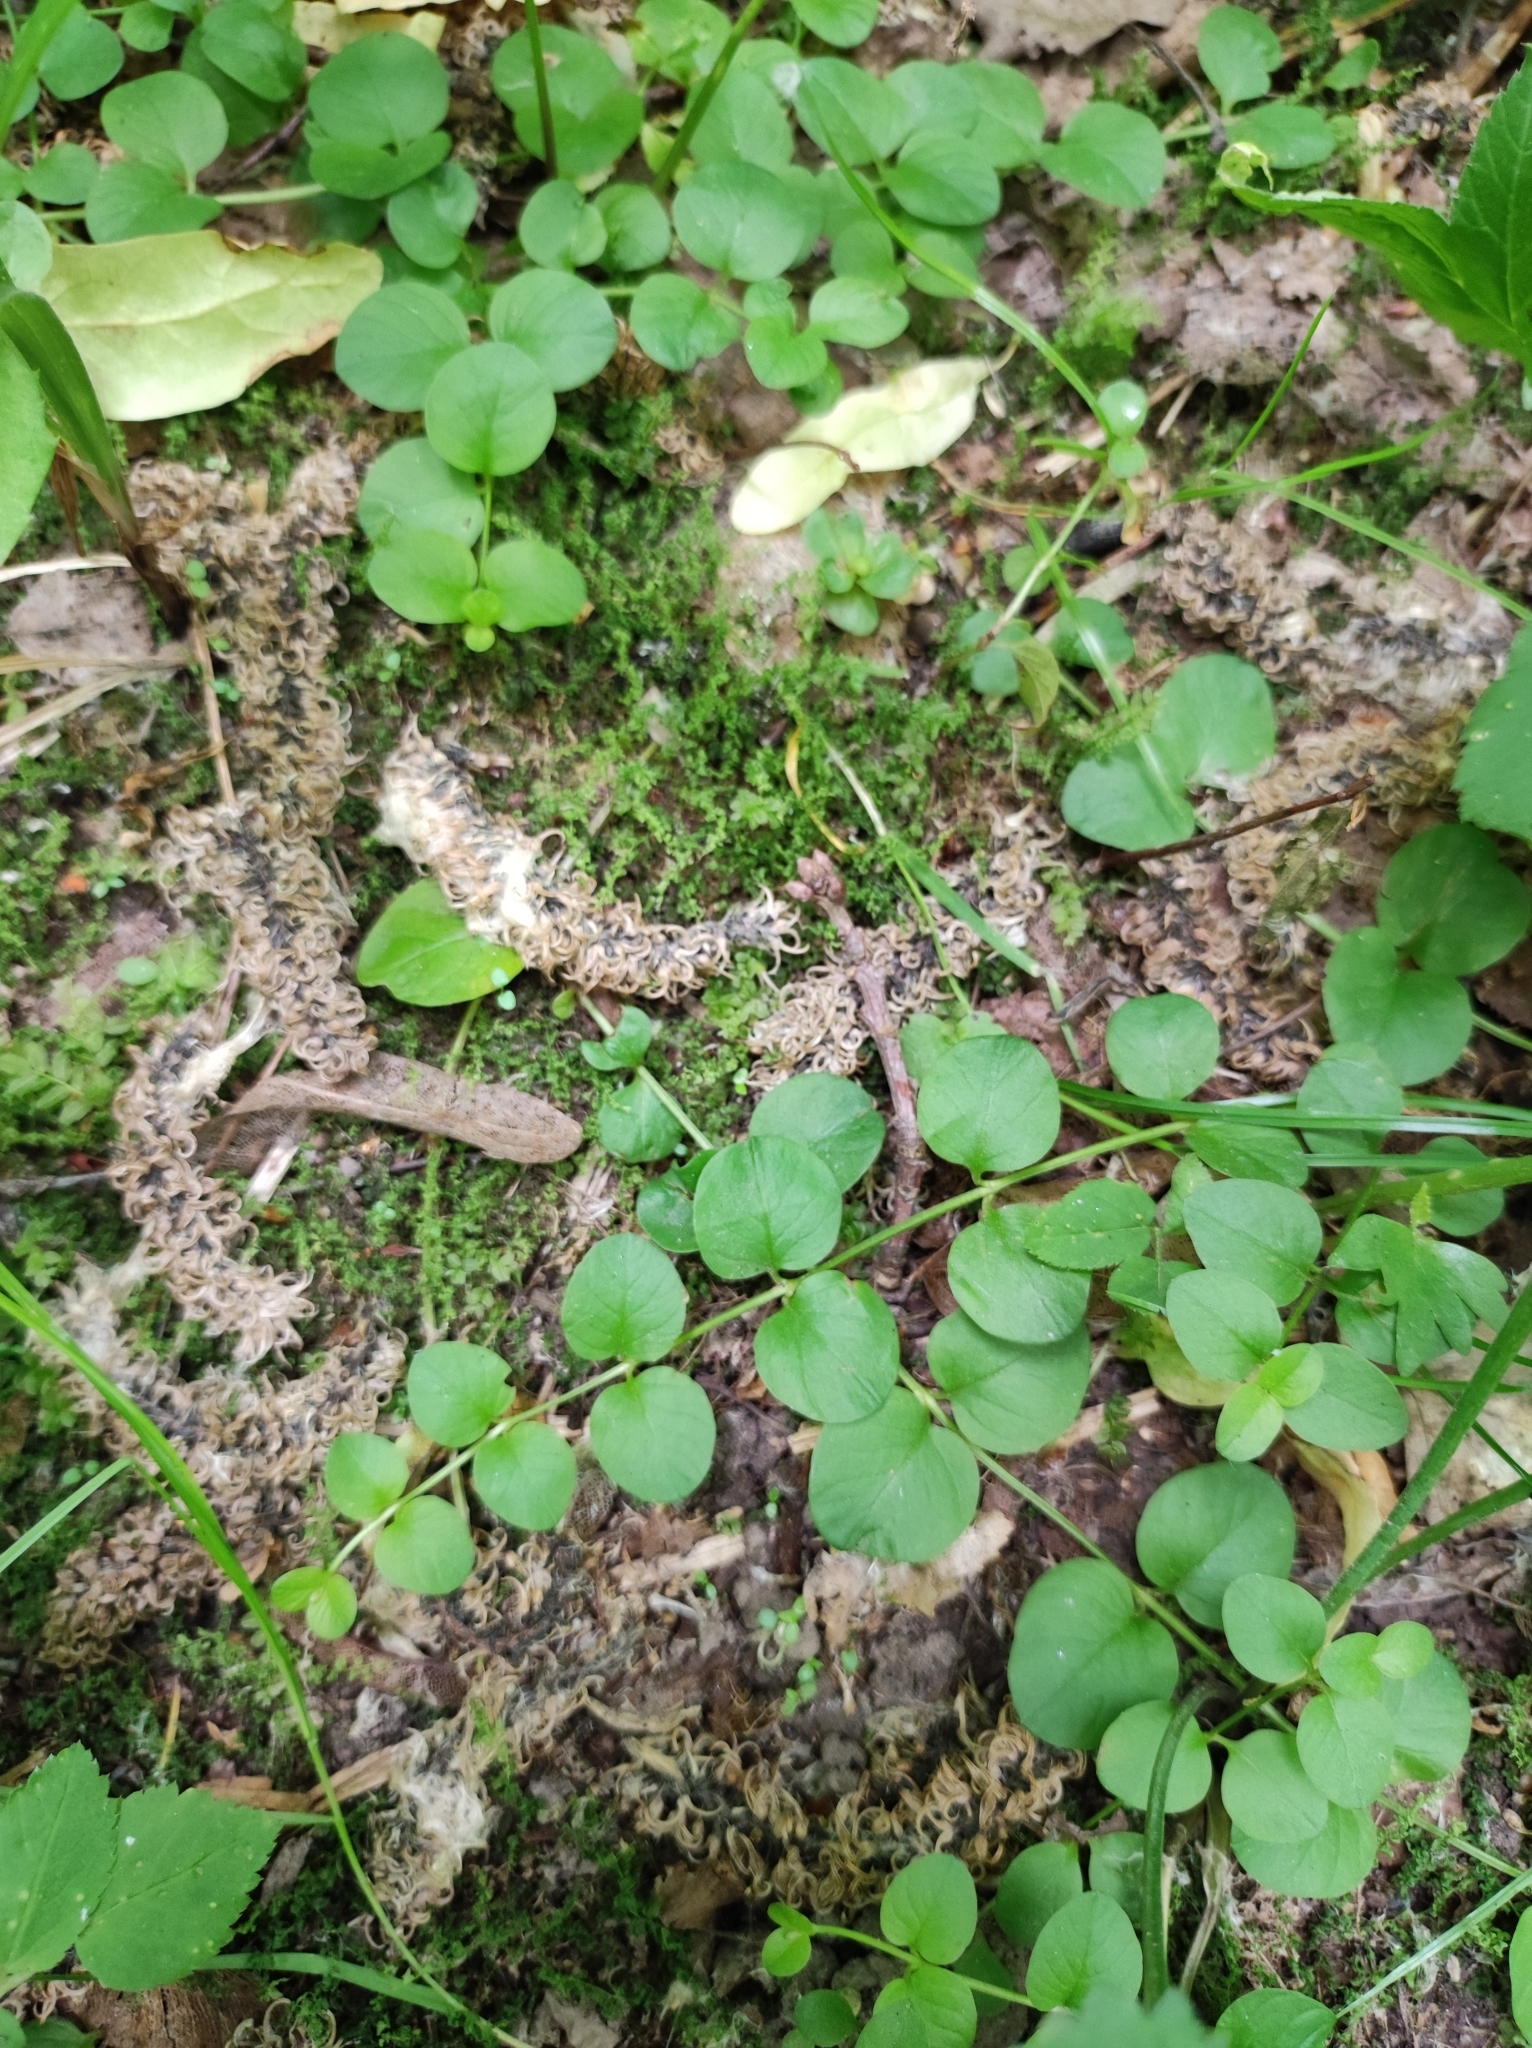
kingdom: Plantae
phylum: Tracheophyta
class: Magnoliopsida
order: Ericales
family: Primulaceae
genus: Lysimachia
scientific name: Lysimachia nummularia
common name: Moneywort
